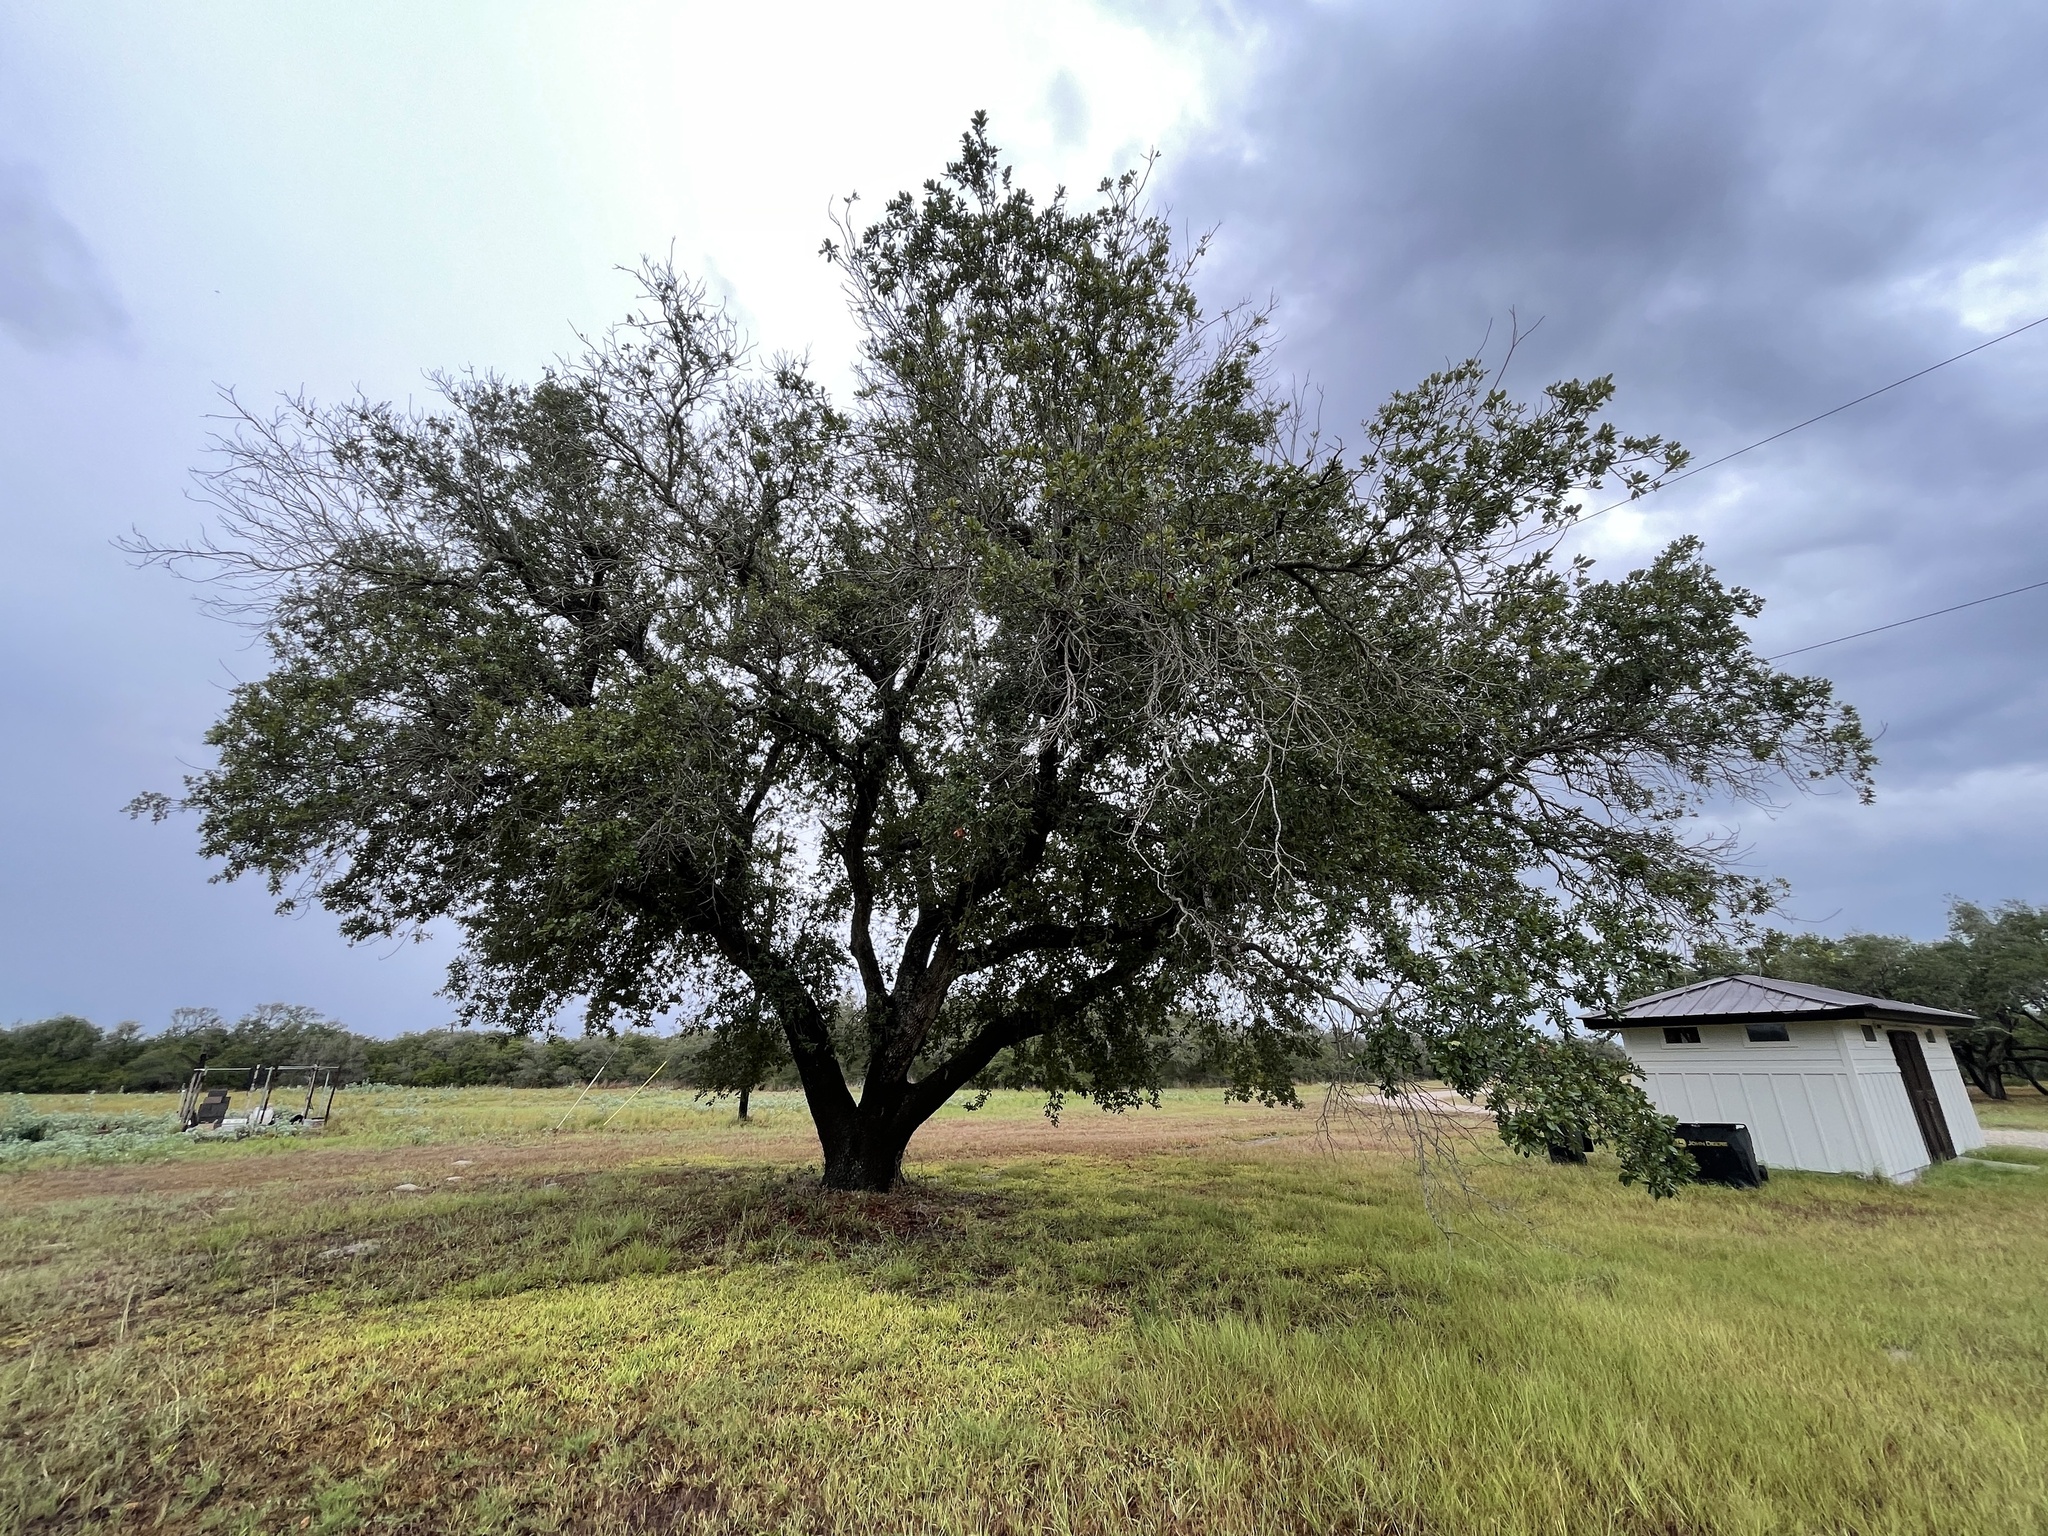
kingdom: Plantae
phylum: Tracheophyta
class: Magnoliopsida
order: Fagales
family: Fagaceae
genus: Quercus
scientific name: Quercus virginiana
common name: Southern live oak
